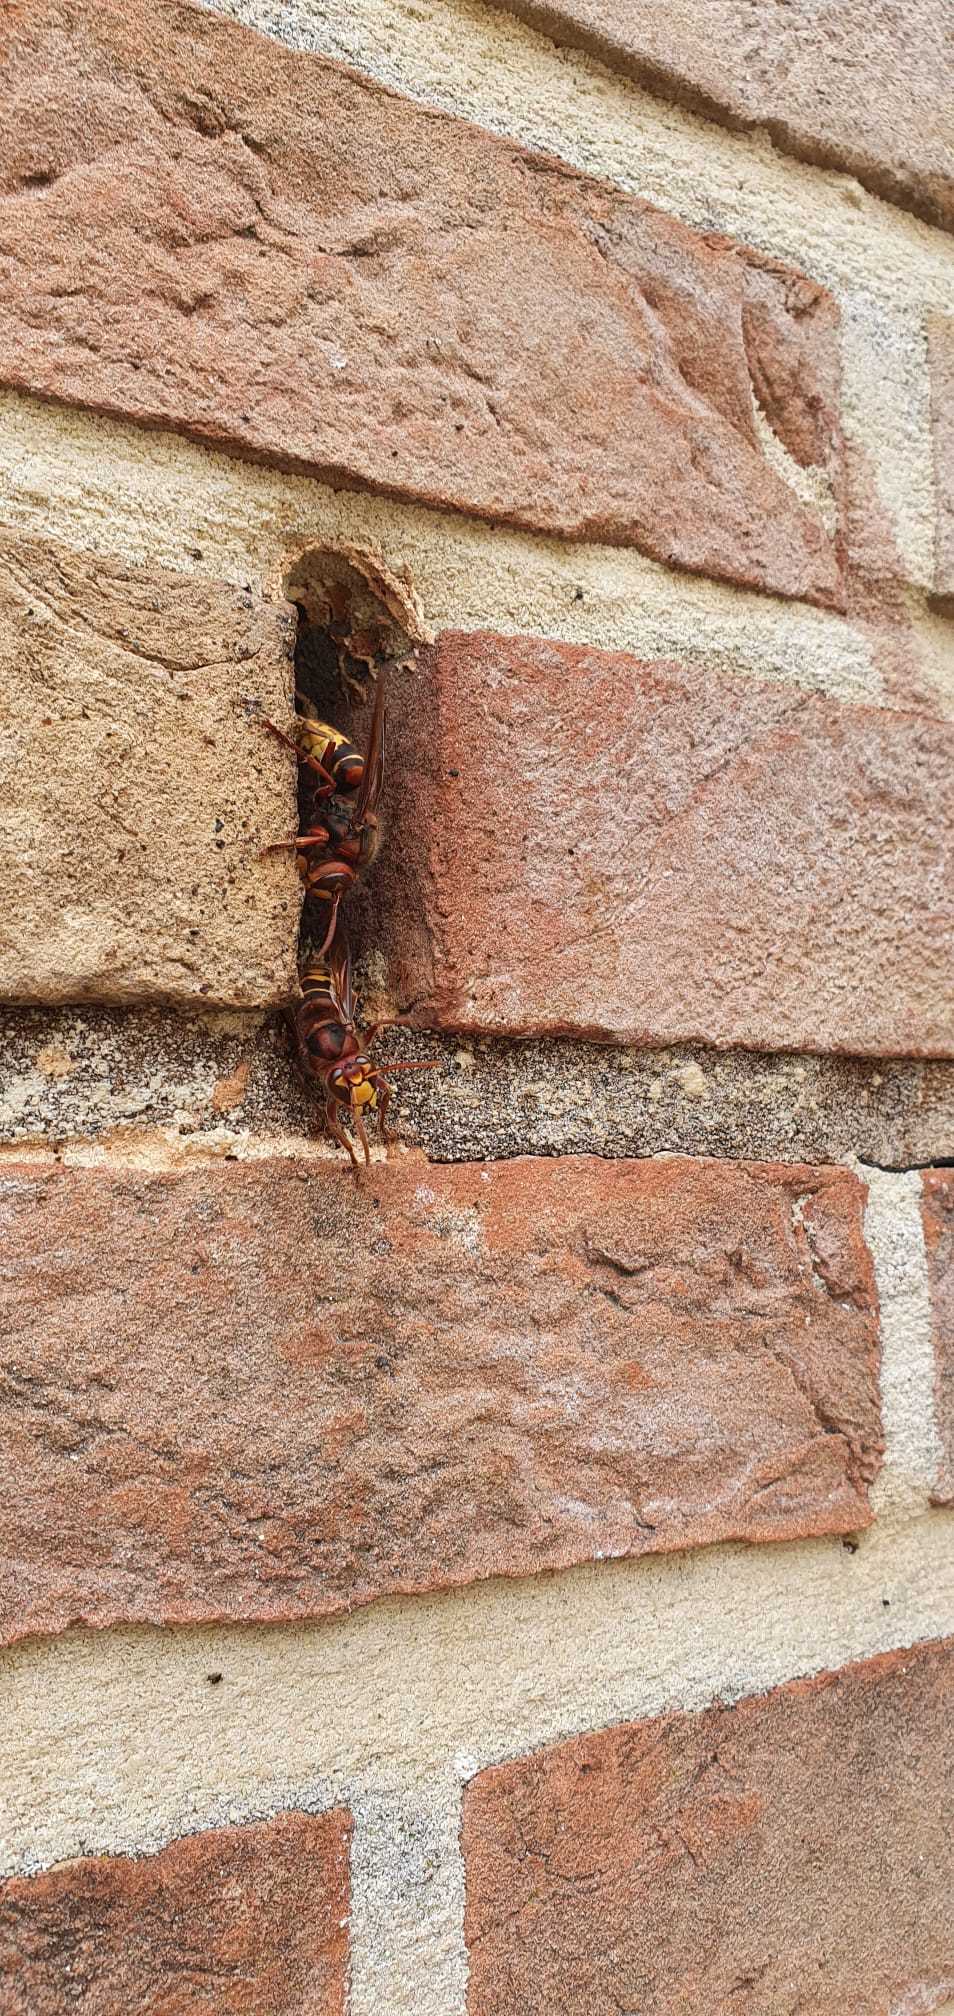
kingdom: Animalia
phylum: Arthropoda
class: Insecta
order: Hymenoptera
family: Vespidae
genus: Vespa
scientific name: Vespa crabro
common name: Hornet
